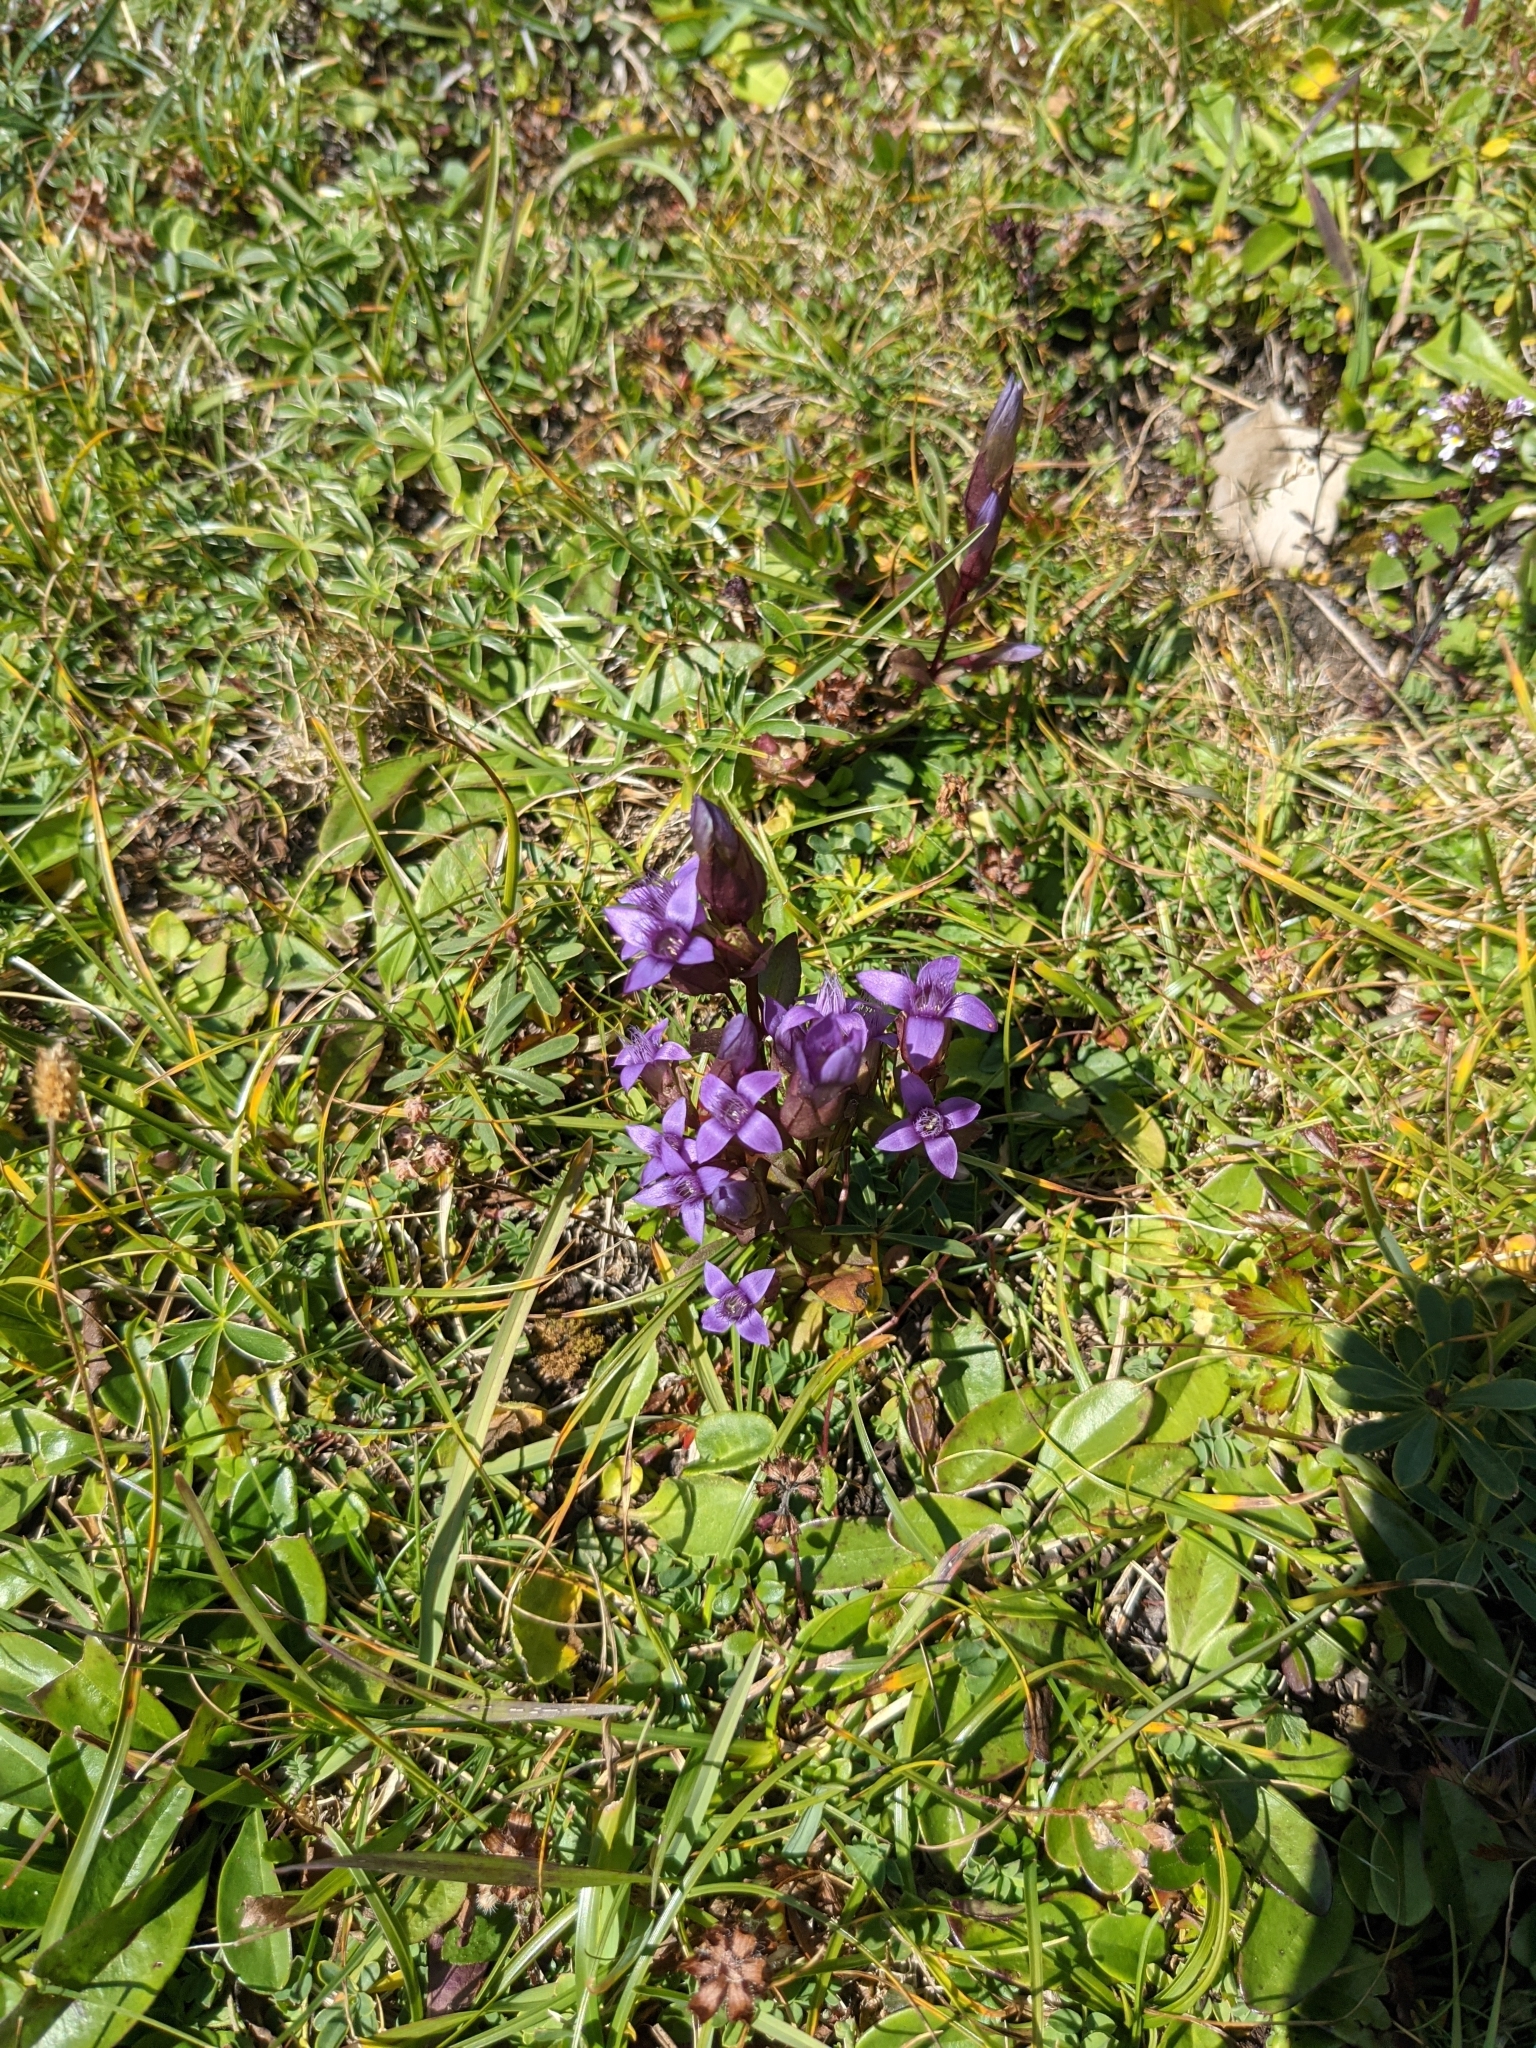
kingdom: Plantae
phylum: Tracheophyta
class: Magnoliopsida
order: Gentianales
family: Gentianaceae
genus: Gentianella
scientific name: Gentianella campestris
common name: Field gentian
